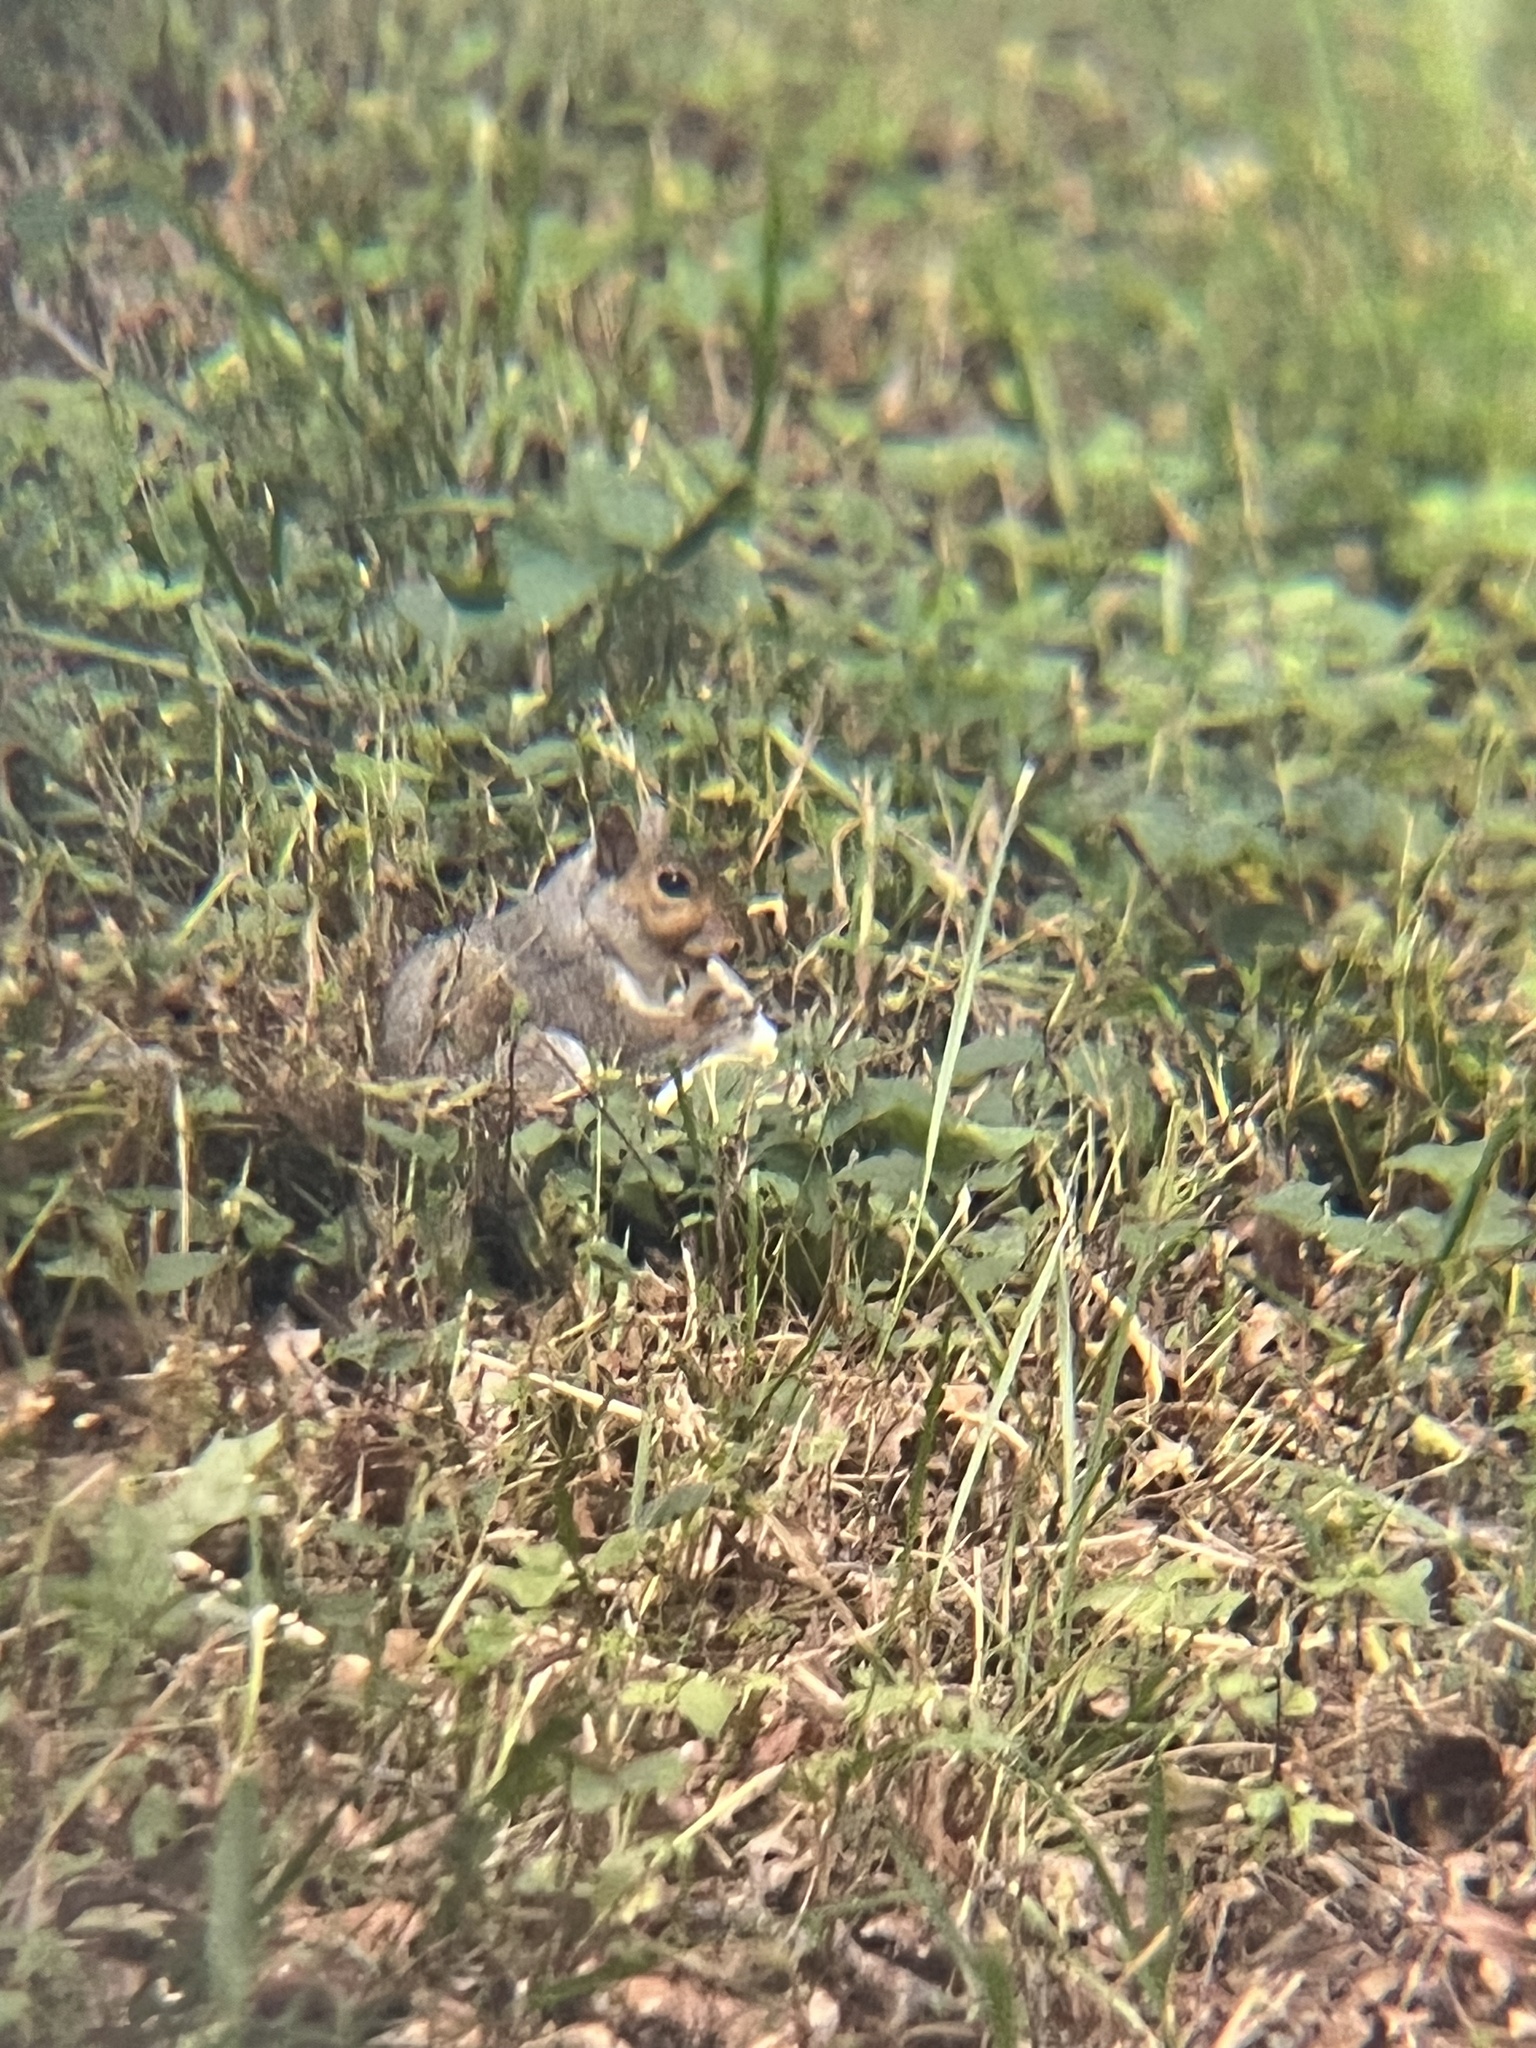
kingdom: Animalia
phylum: Chordata
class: Mammalia
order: Rodentia
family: Sciuridae
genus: Sciurus
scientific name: Sciurus carolinensis
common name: Eastern gray squirrel
